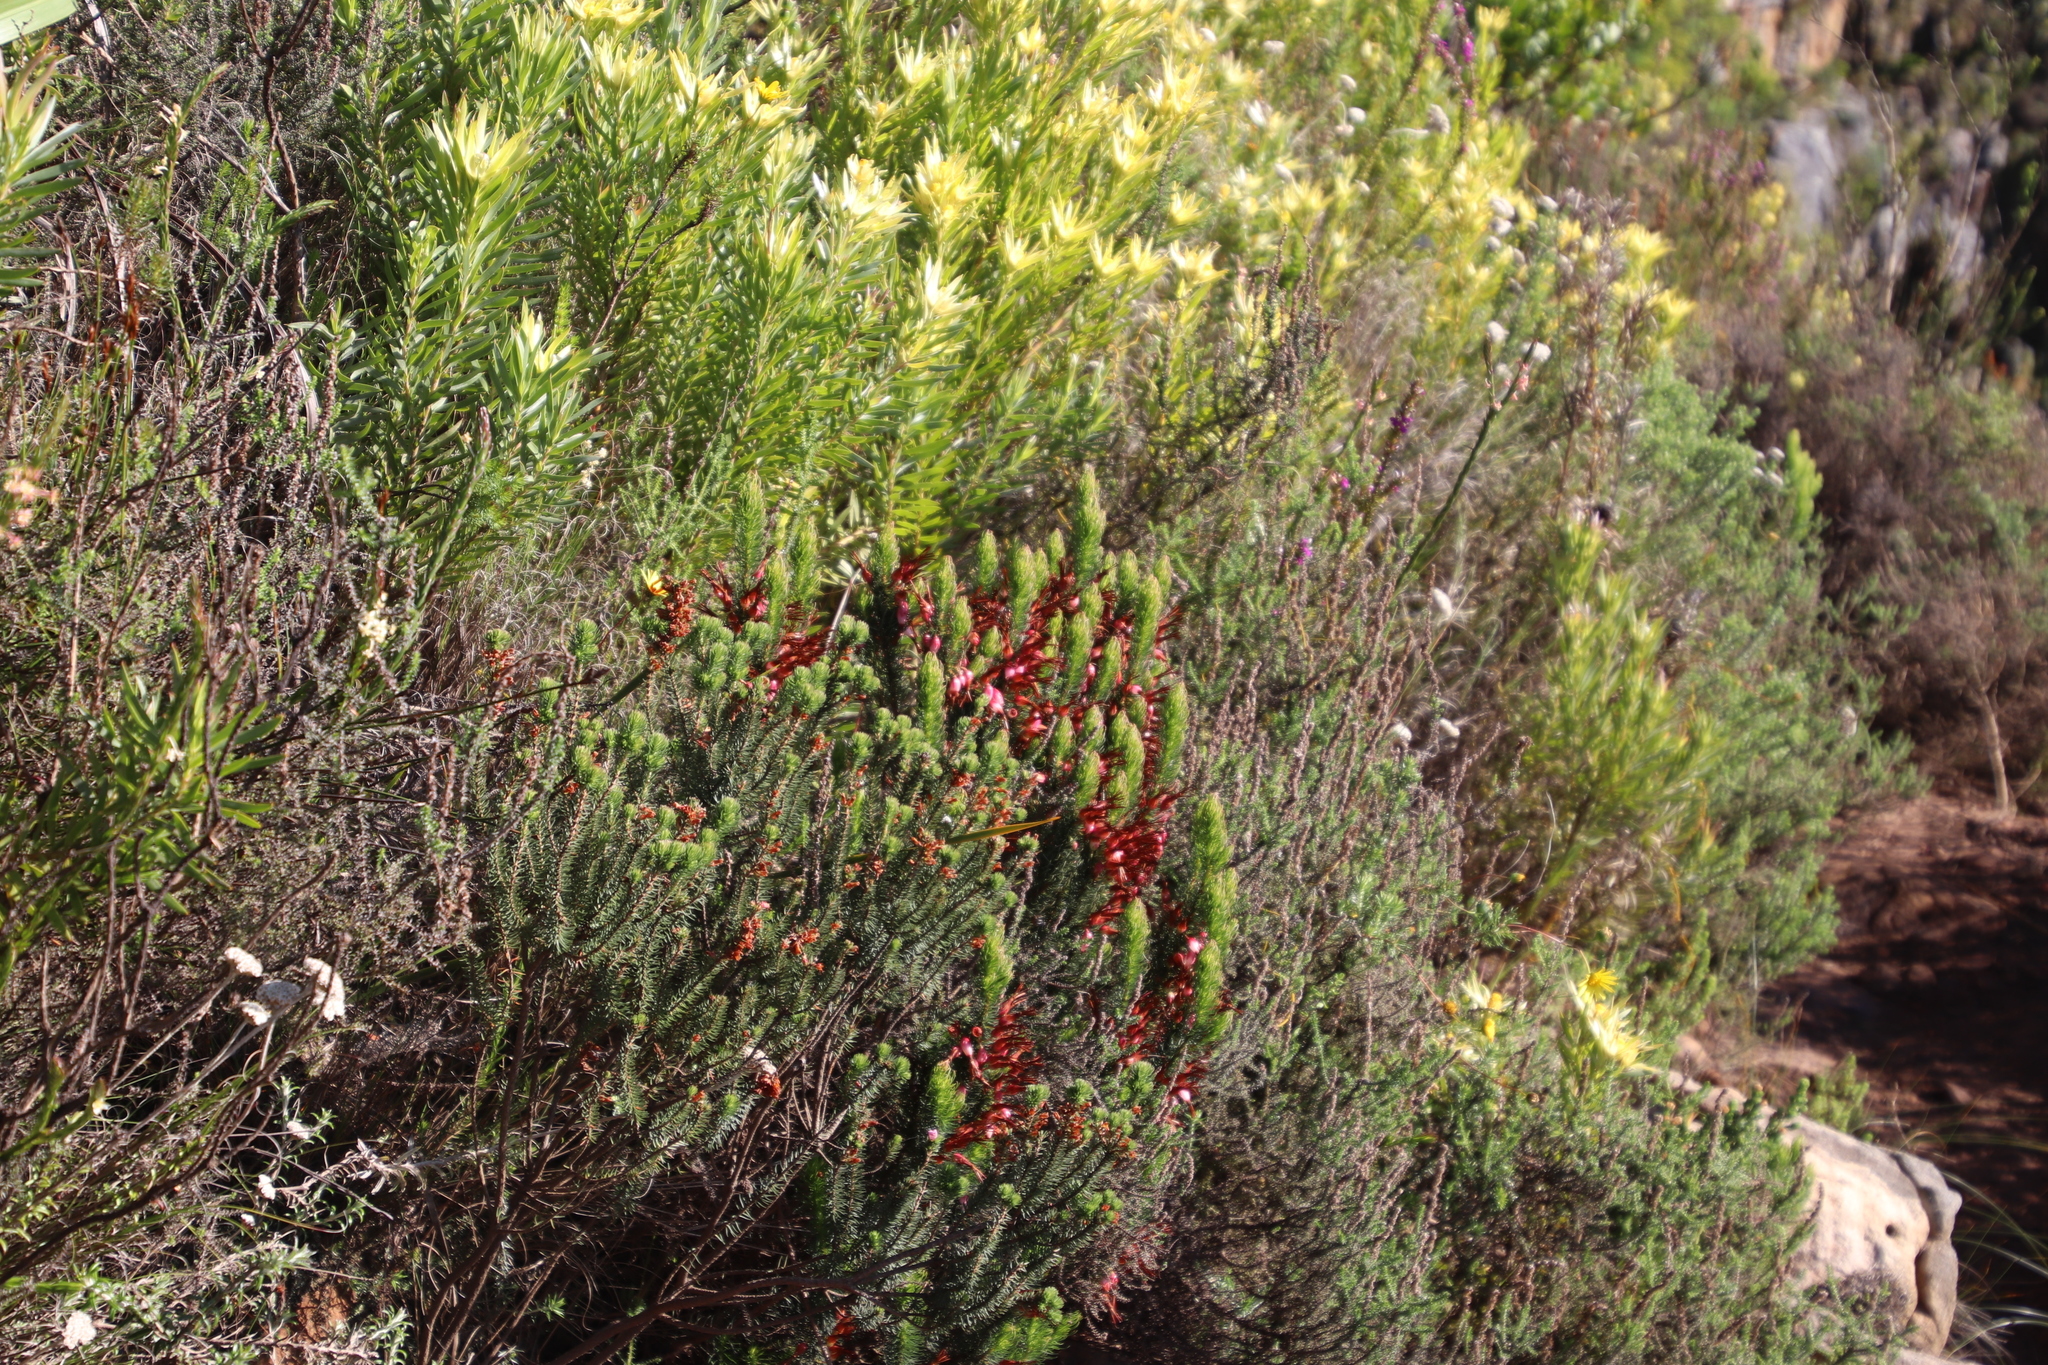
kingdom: Plantae
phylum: Tracheophyta
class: Magnoliopsida
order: Ericales
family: Ericaceae
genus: Erica
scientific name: Erica plukenetii
